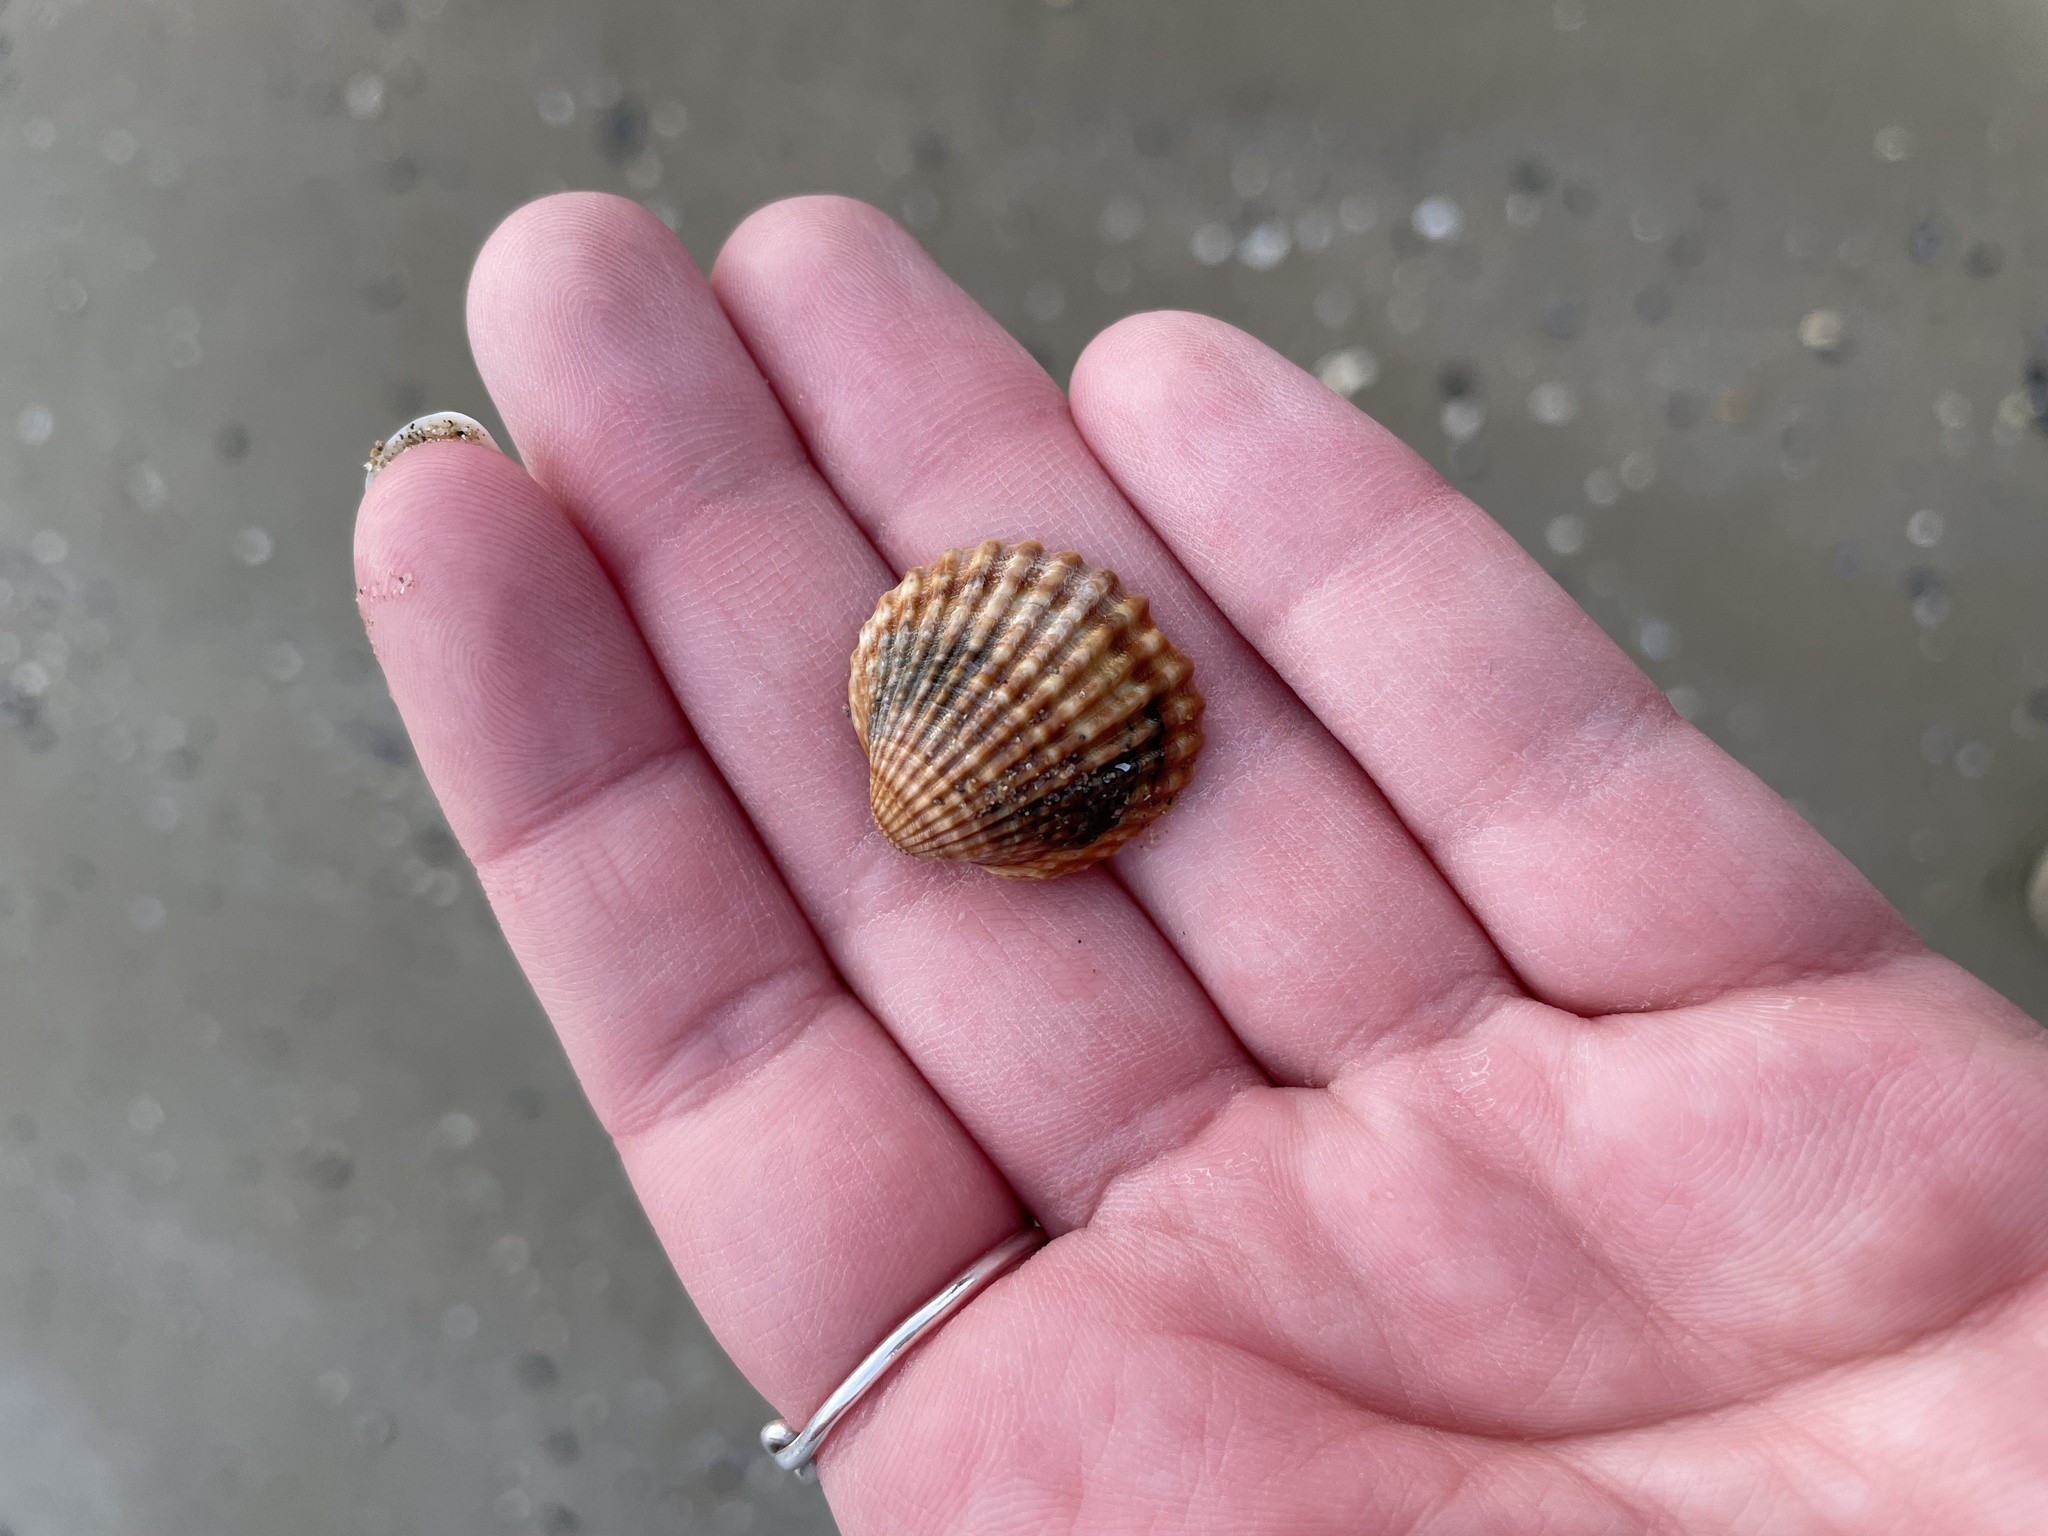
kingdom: Animalia
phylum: Mollusca
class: Bivalvia
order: Cardiida
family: Cardiidae
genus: Acanthocardia
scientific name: Acanthocardia tuberculata
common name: Rough cockle
